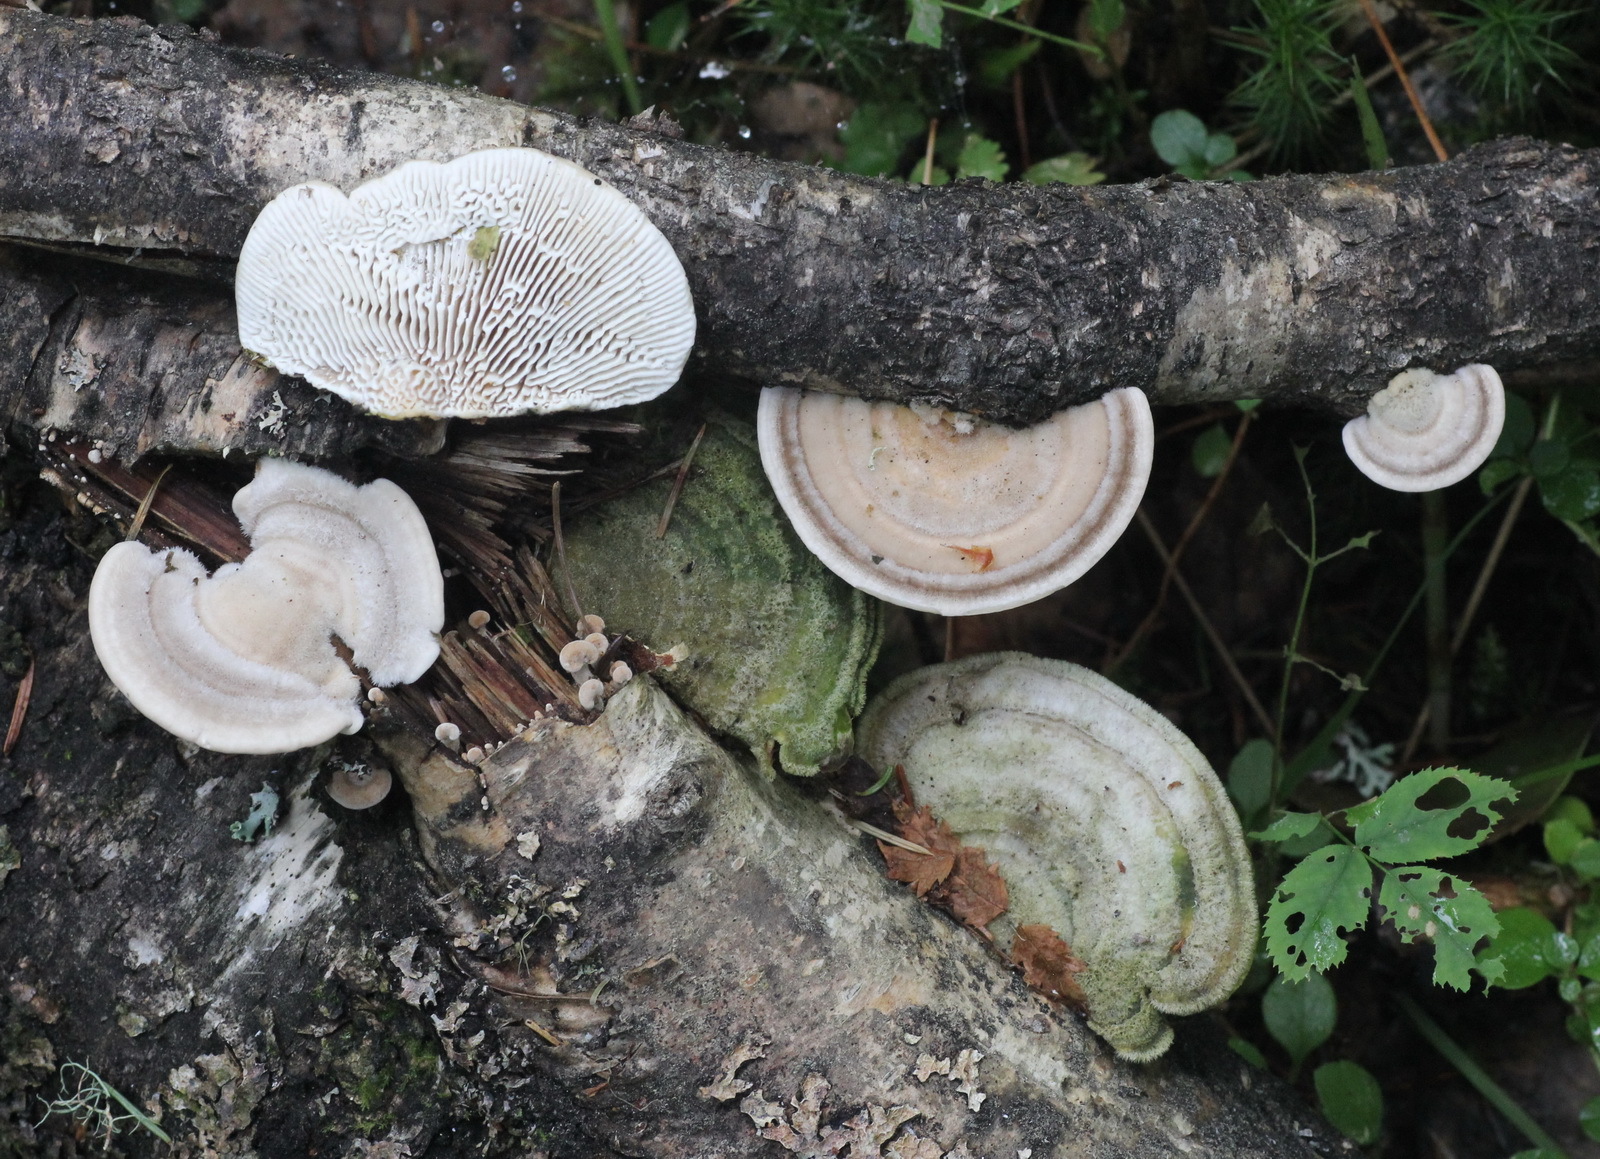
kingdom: Fungi
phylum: Basidiomycota
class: Agaricomycetes
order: Polyporales
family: Polyporaceae
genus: Lenzites
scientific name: Lenzites betulinus
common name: Birch mazegill
